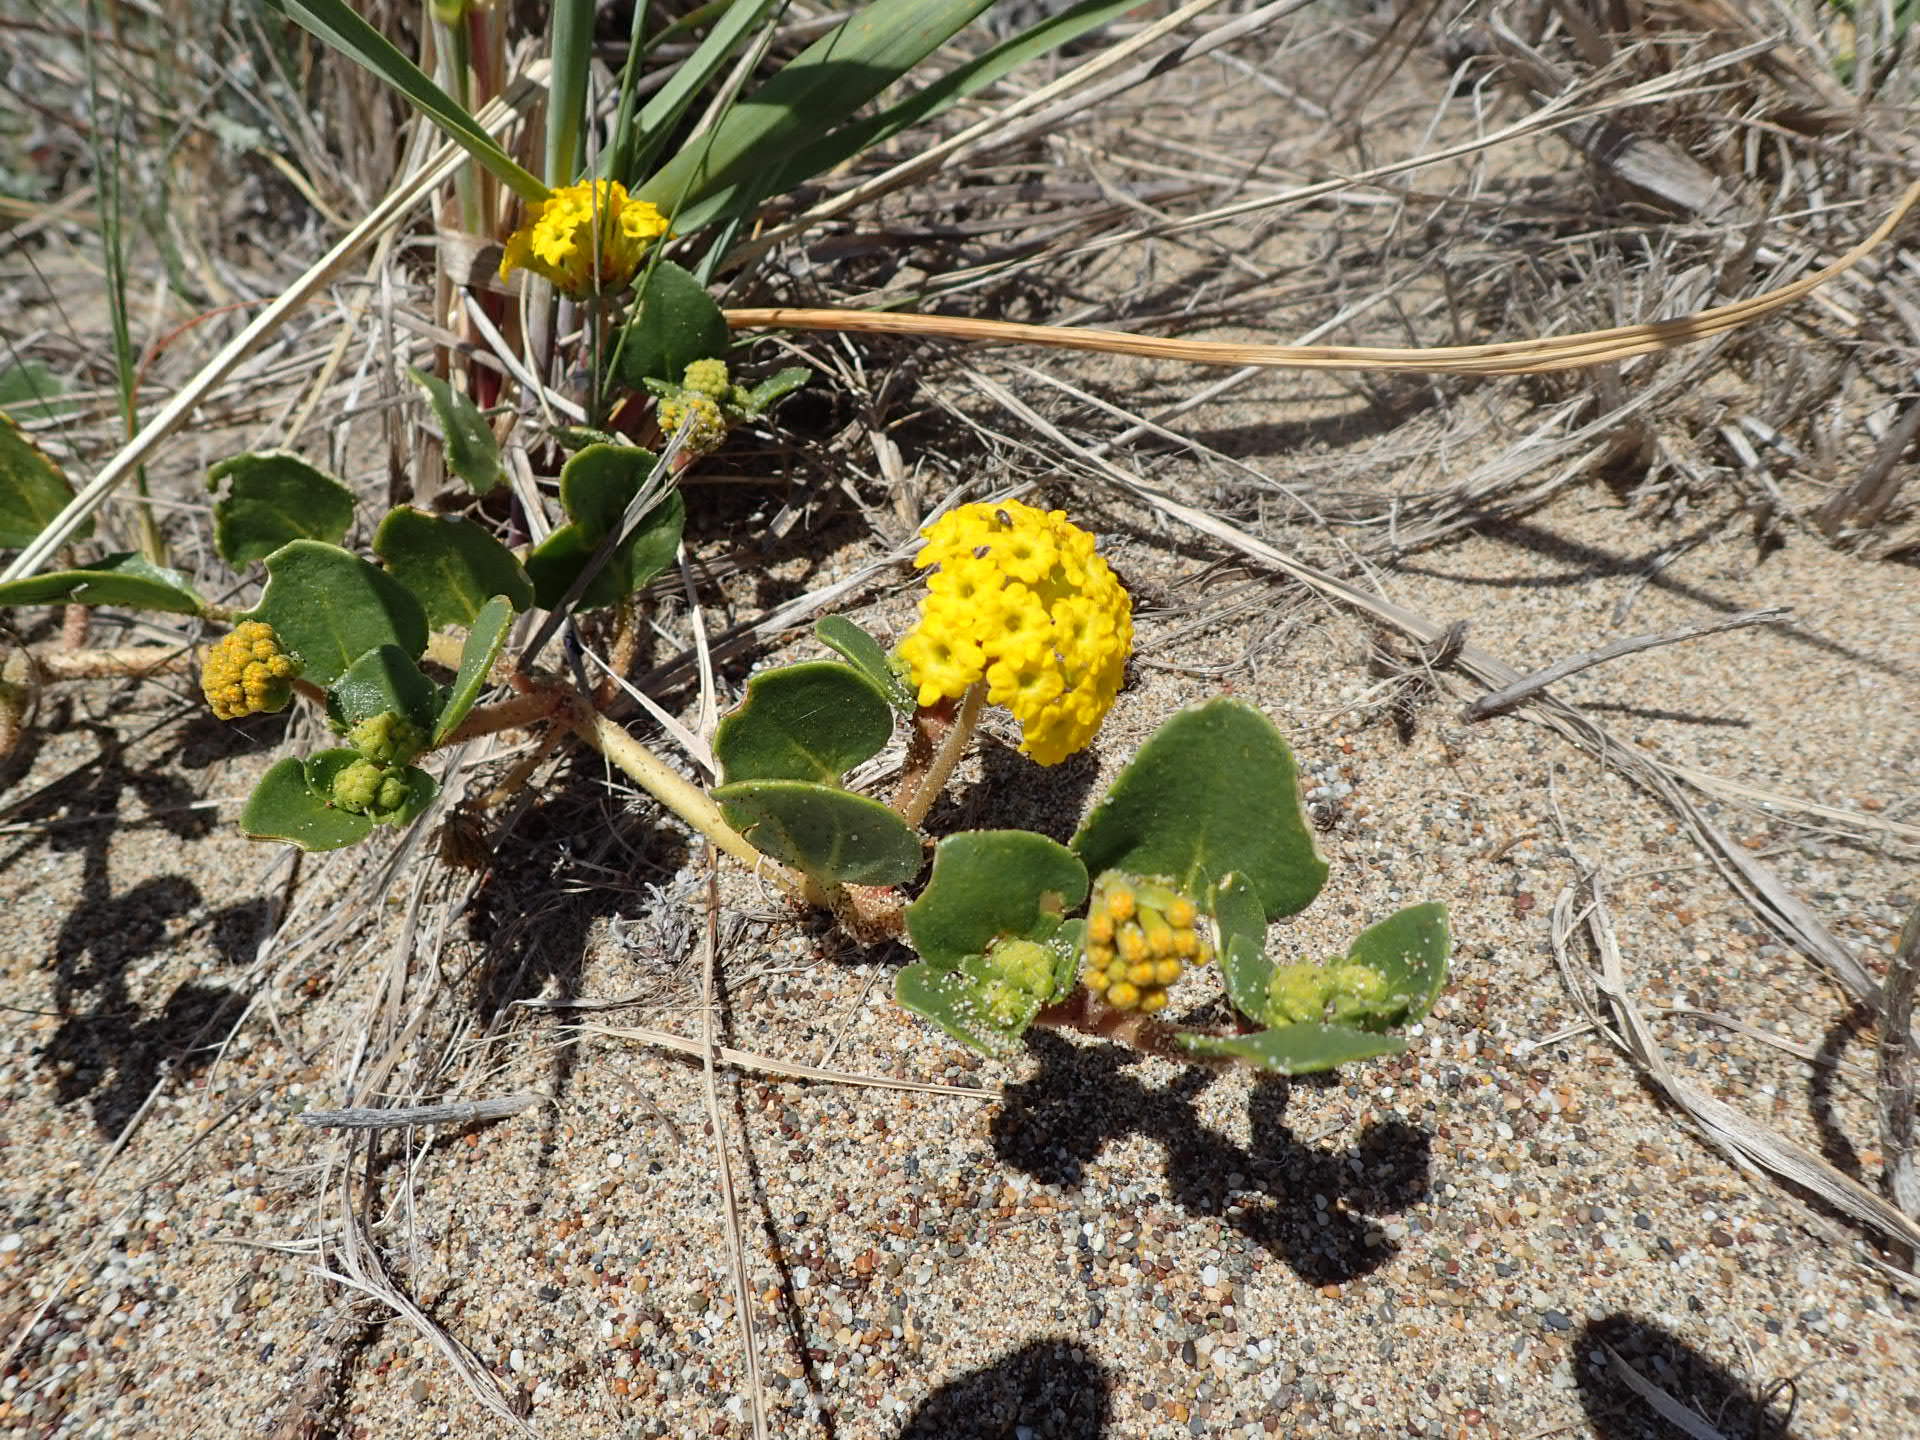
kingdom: Plantae
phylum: Tracheophyta
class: Magnoliopsida
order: Caryophyllales
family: Nyctaginaceae
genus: Abronia
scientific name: Abronia latifolia
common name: Yellow sand-verbena
